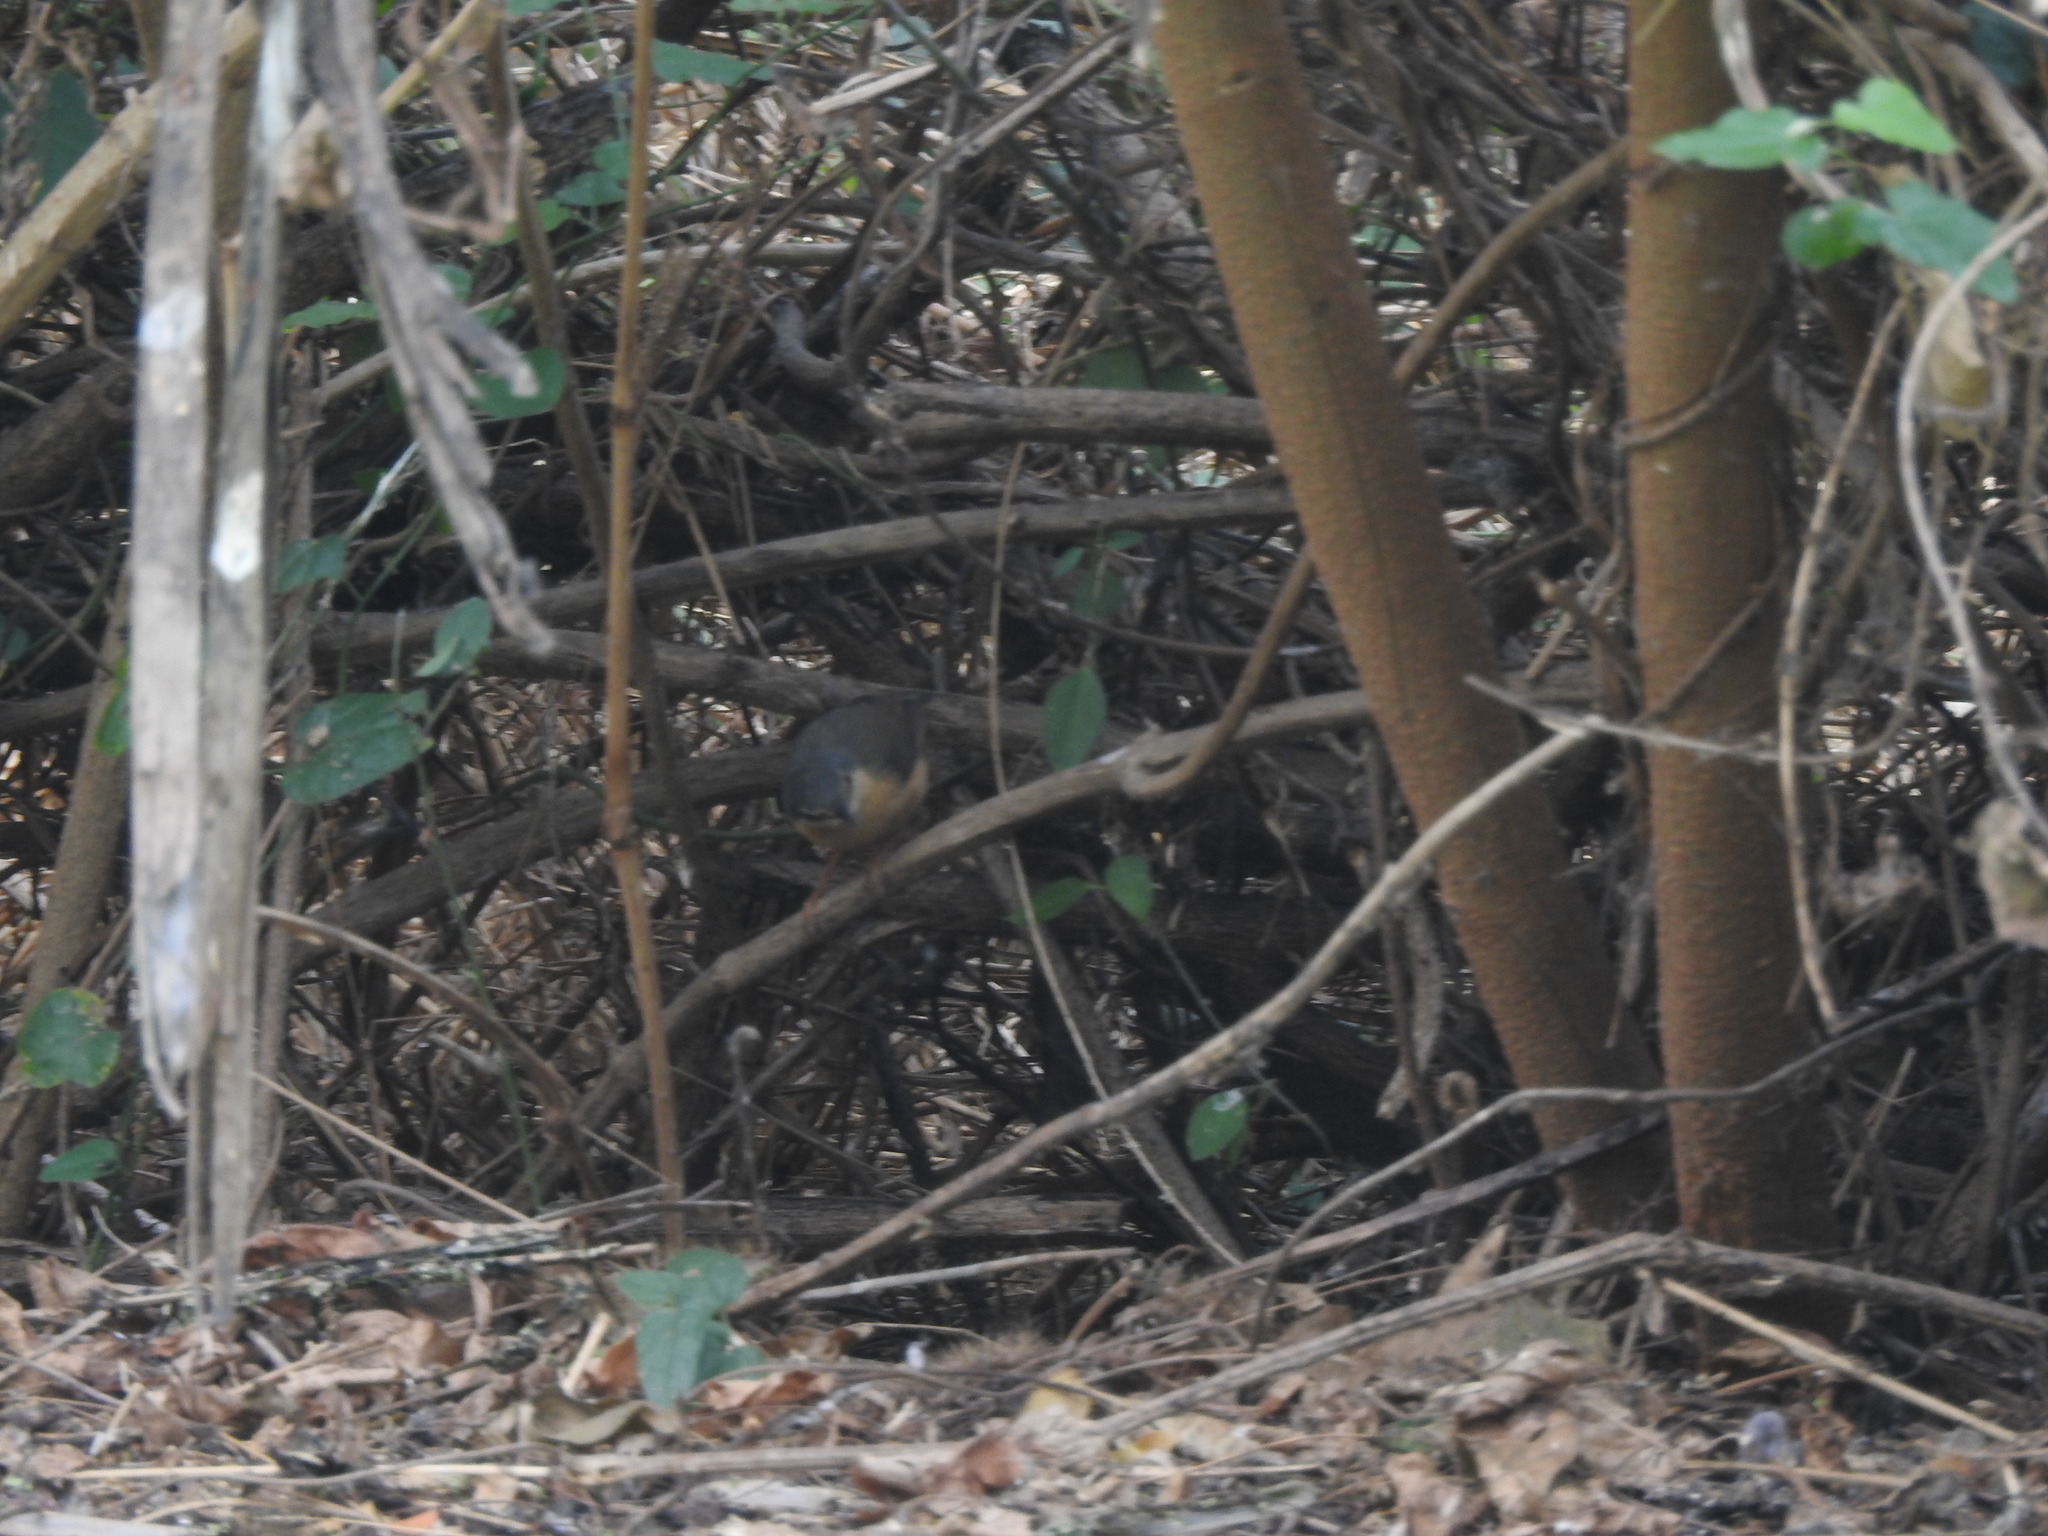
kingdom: Animalia
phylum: Chordata
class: Aves
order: Passeriformes
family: Cisticolidae
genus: Prinia
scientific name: Prinia socialis
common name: Ashy prinia
